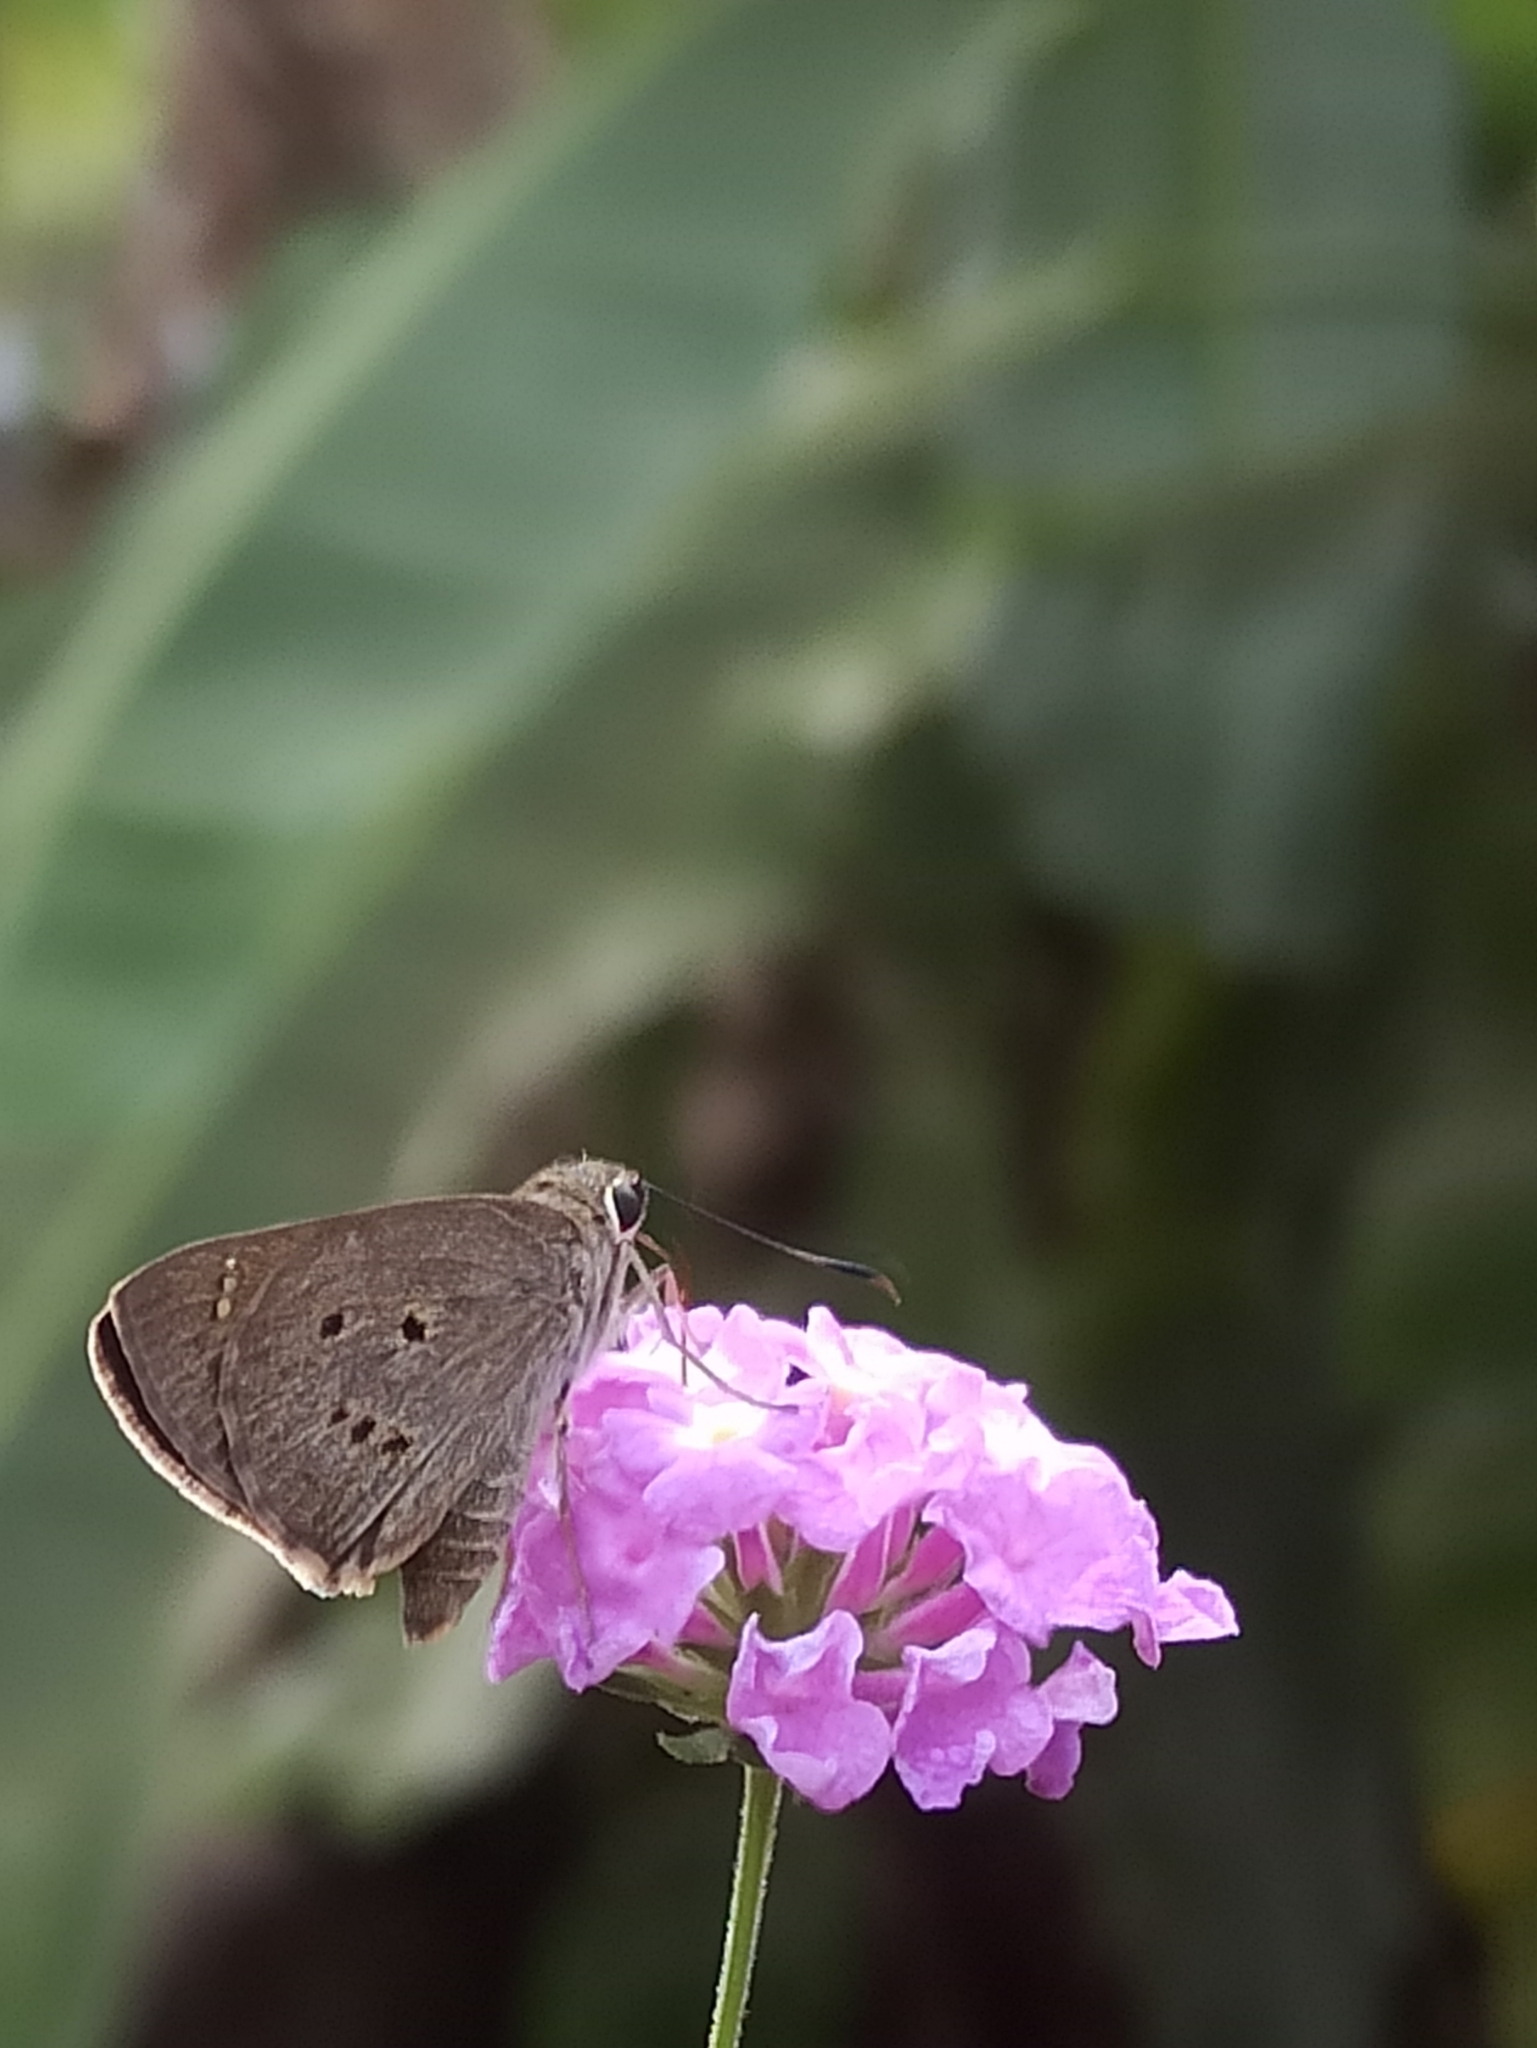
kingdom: Animalia
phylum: Arthropoda
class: Insecta
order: Lepidoptera
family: Hesperiidae
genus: Suastus
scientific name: Suastus gremius
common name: Indian palm bob
